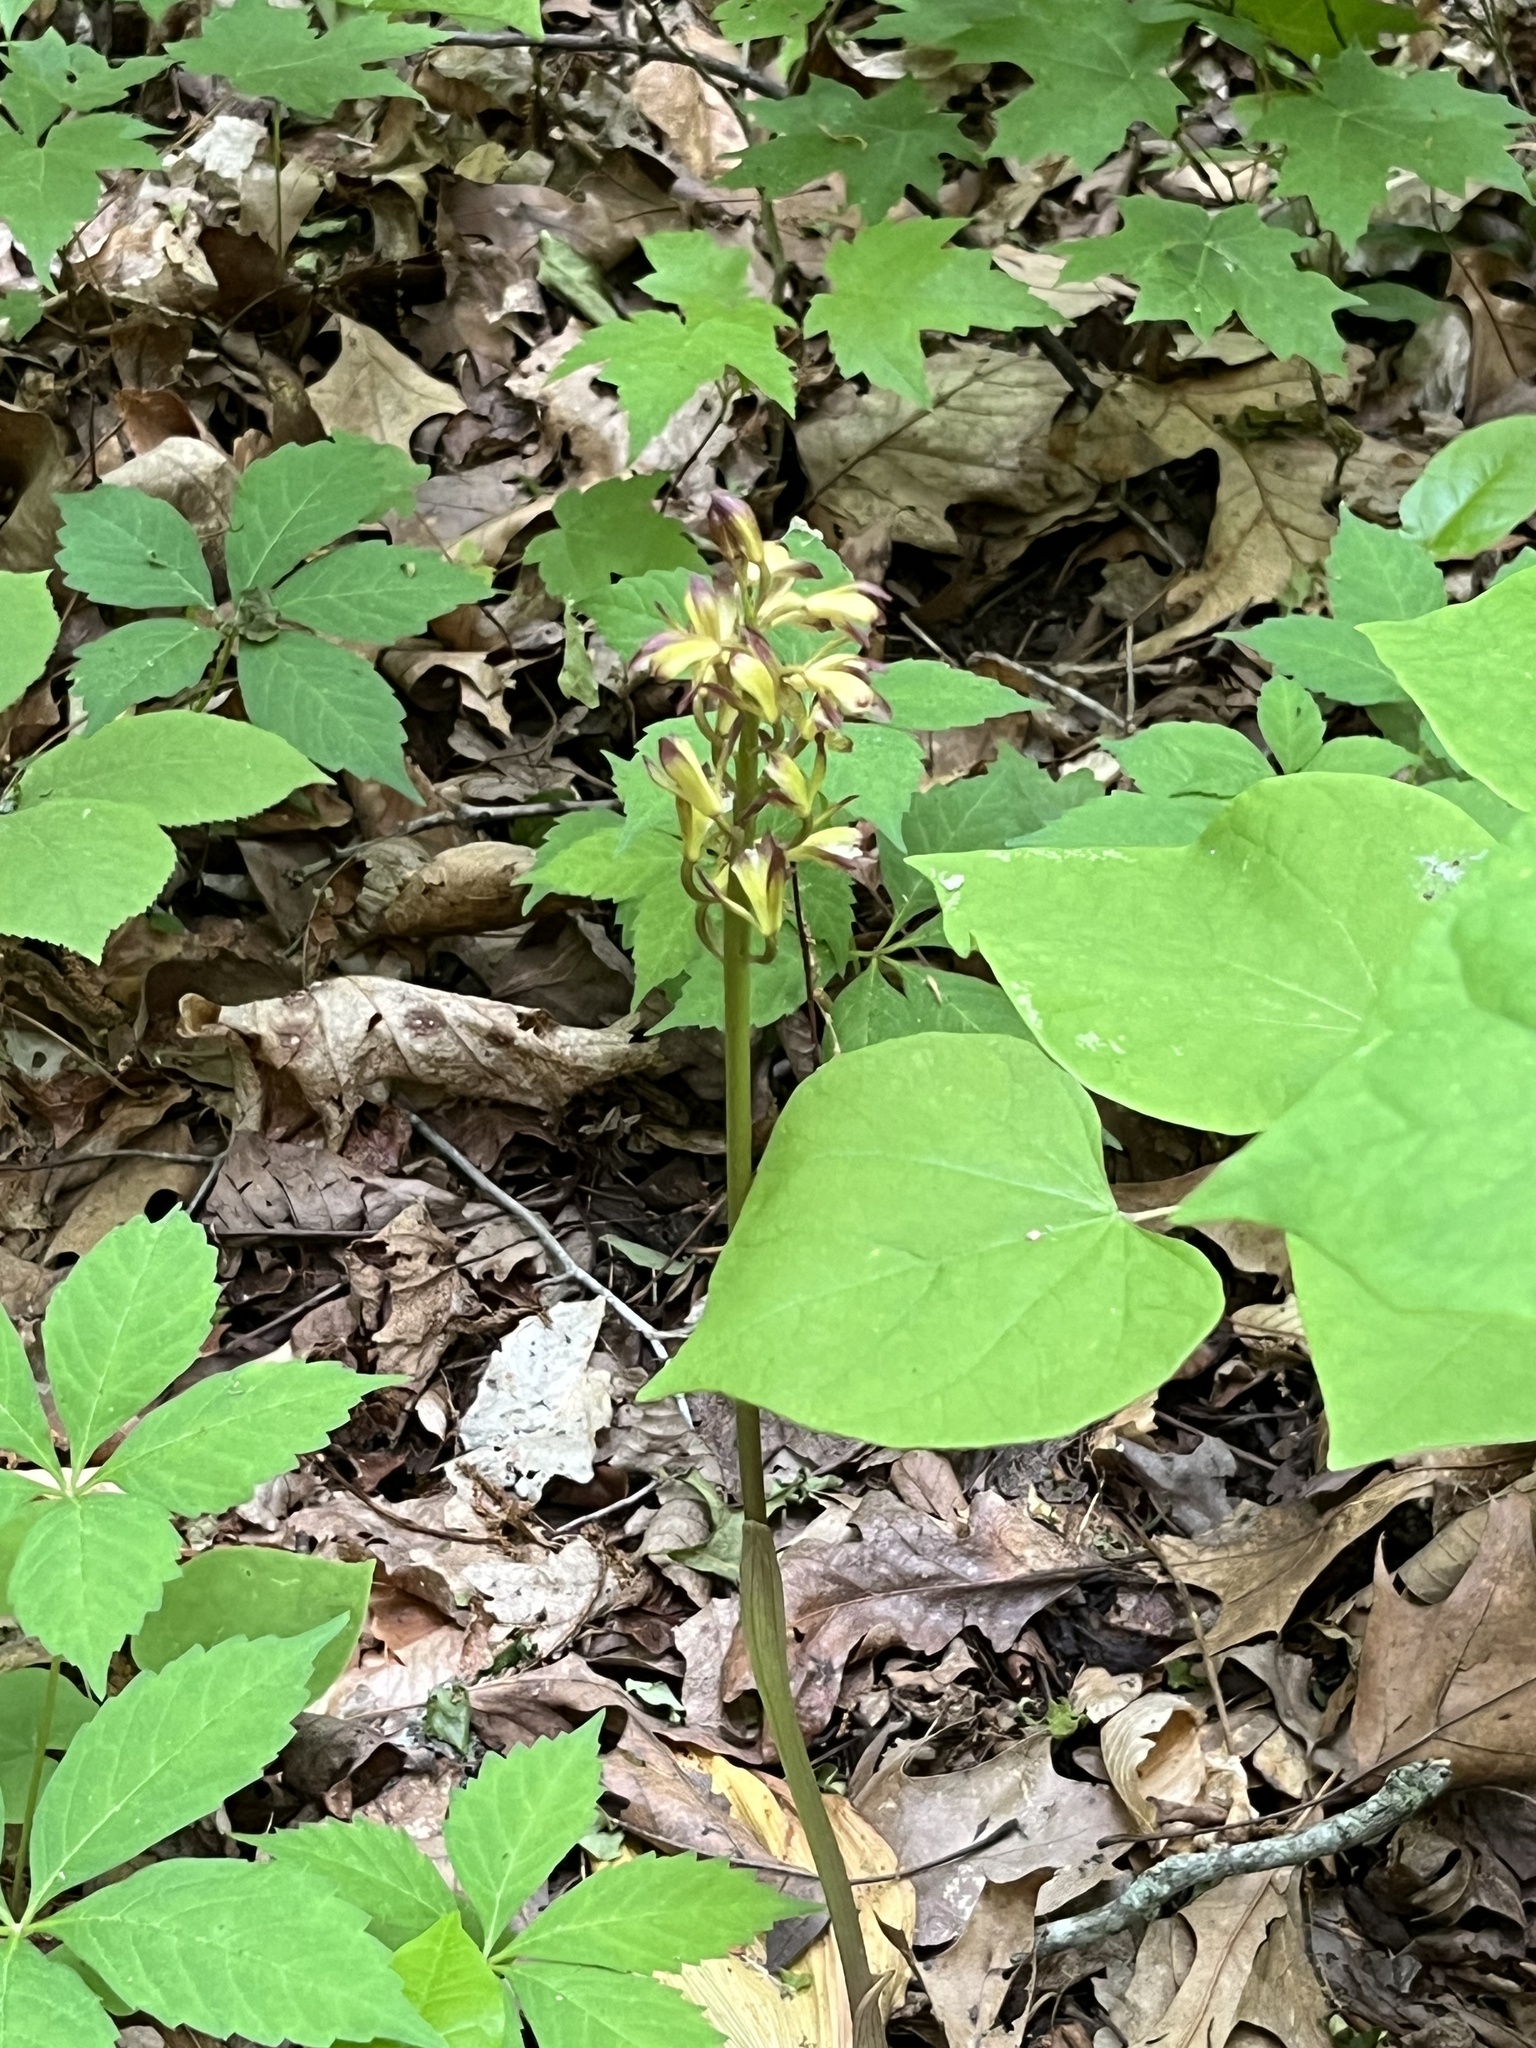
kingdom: Plantae
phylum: Tracheophyta
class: Liliopsida
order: Asparagales
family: Orchidaceae
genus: Aplectrum
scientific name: Aplectrum hyemale
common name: Adam-and-eve
